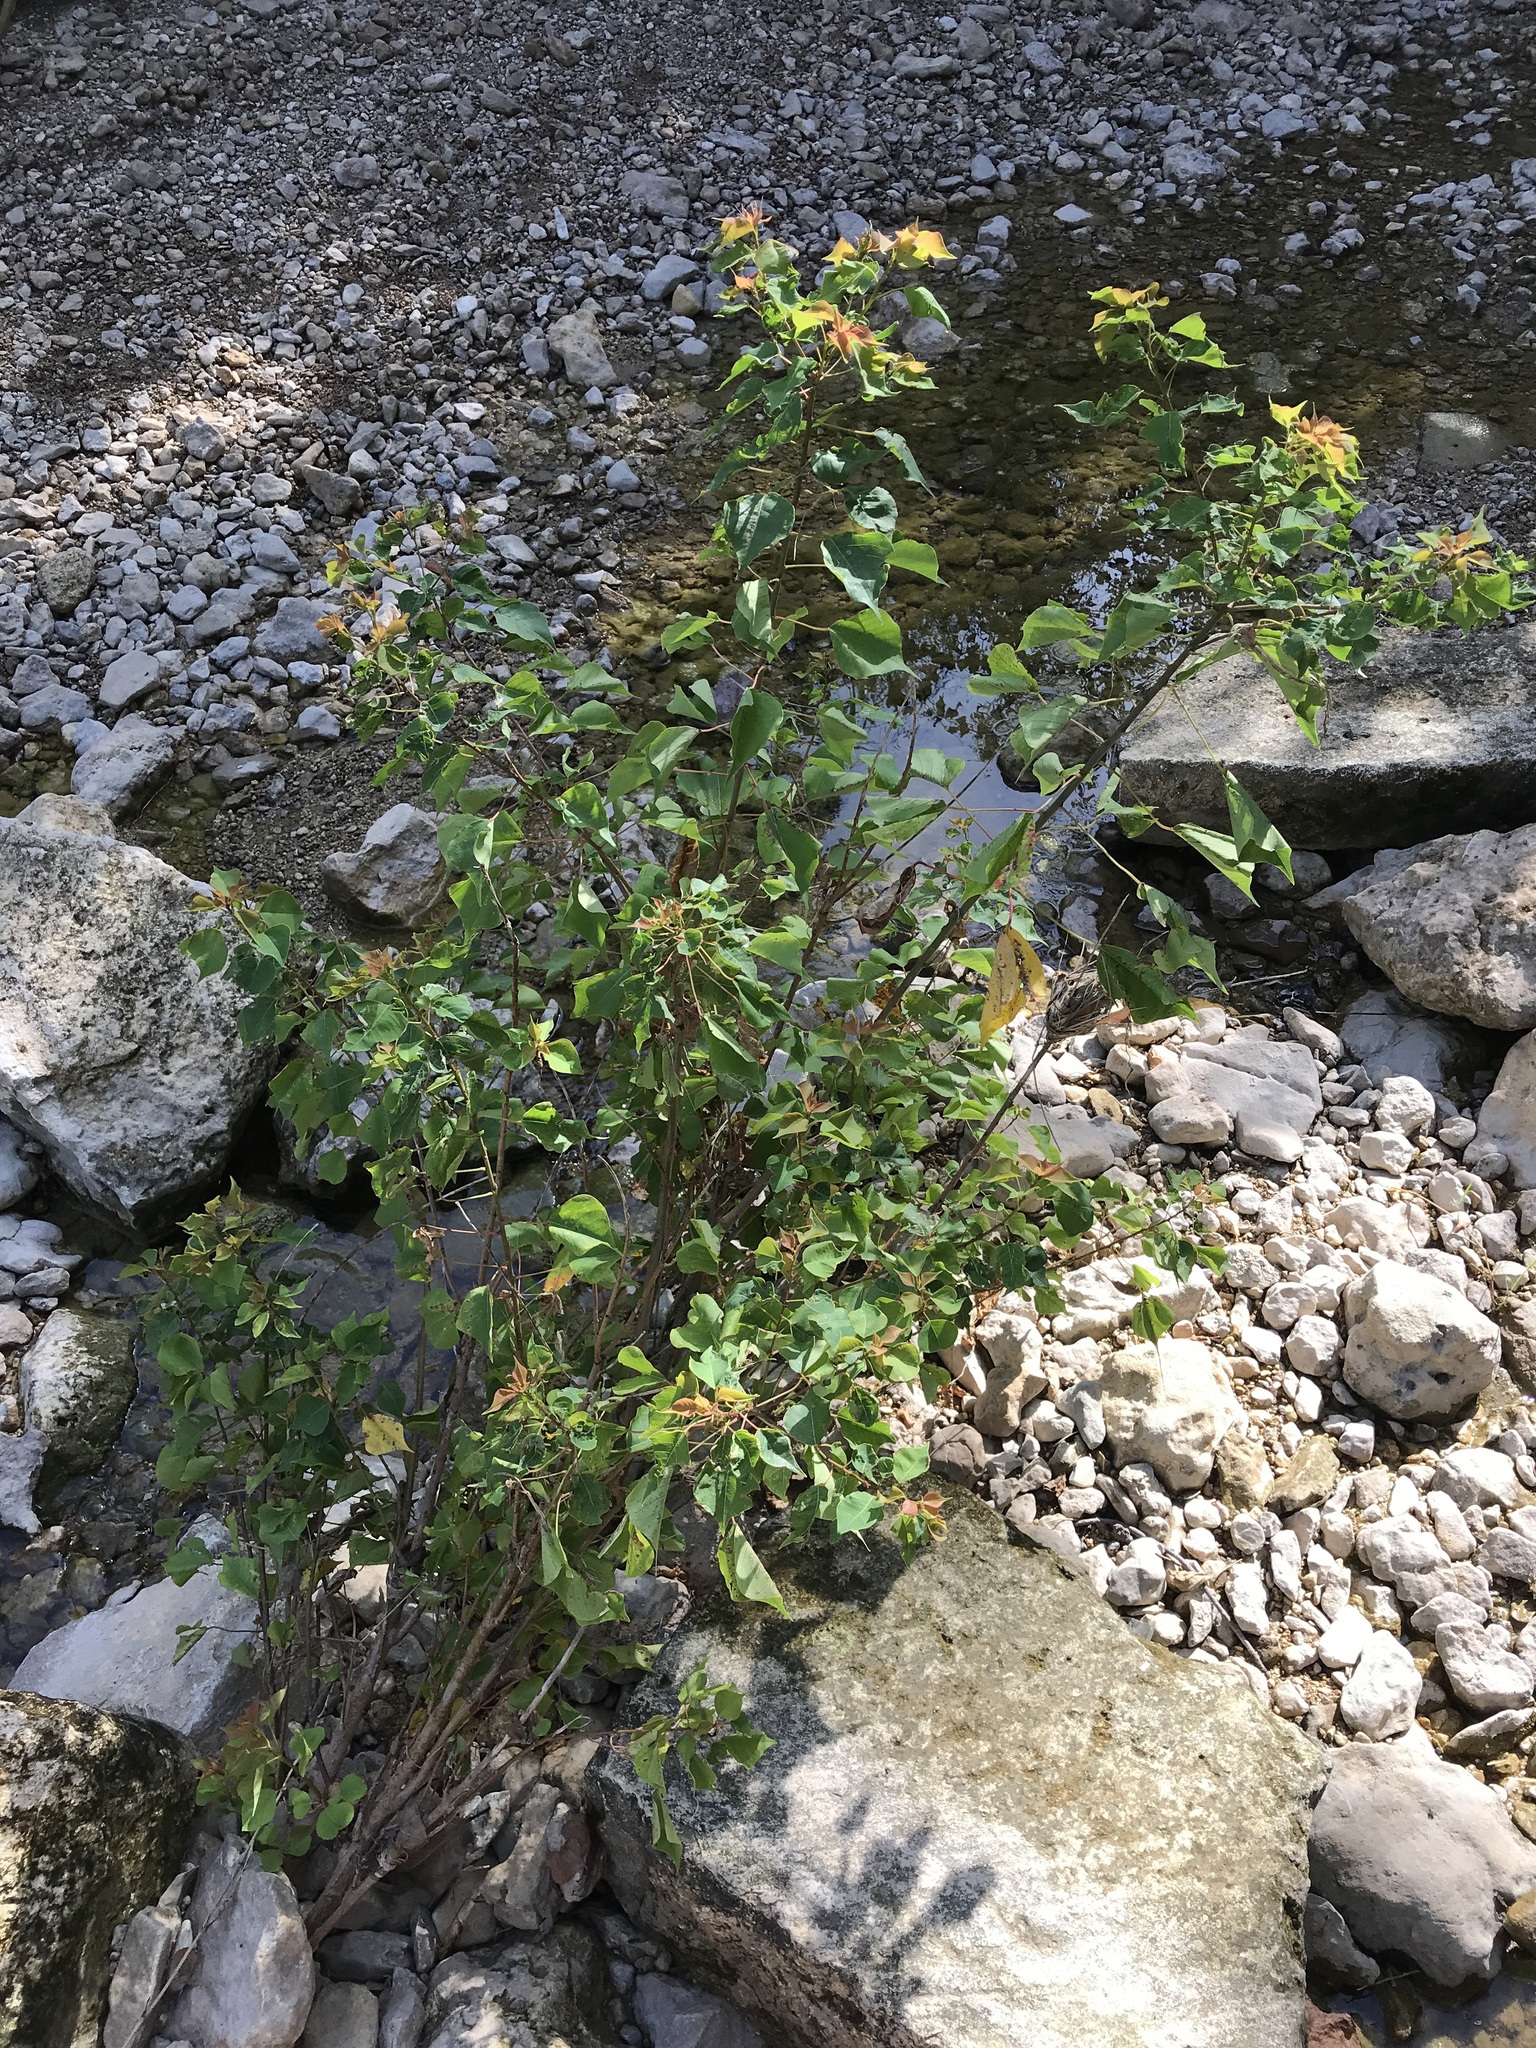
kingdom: Plantae
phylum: Tracheophyta
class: Magnoliopsida
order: Malpighiales
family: Euphorbiaceae
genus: Triadica
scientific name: Triadica sebifera
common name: Chinese tallow
